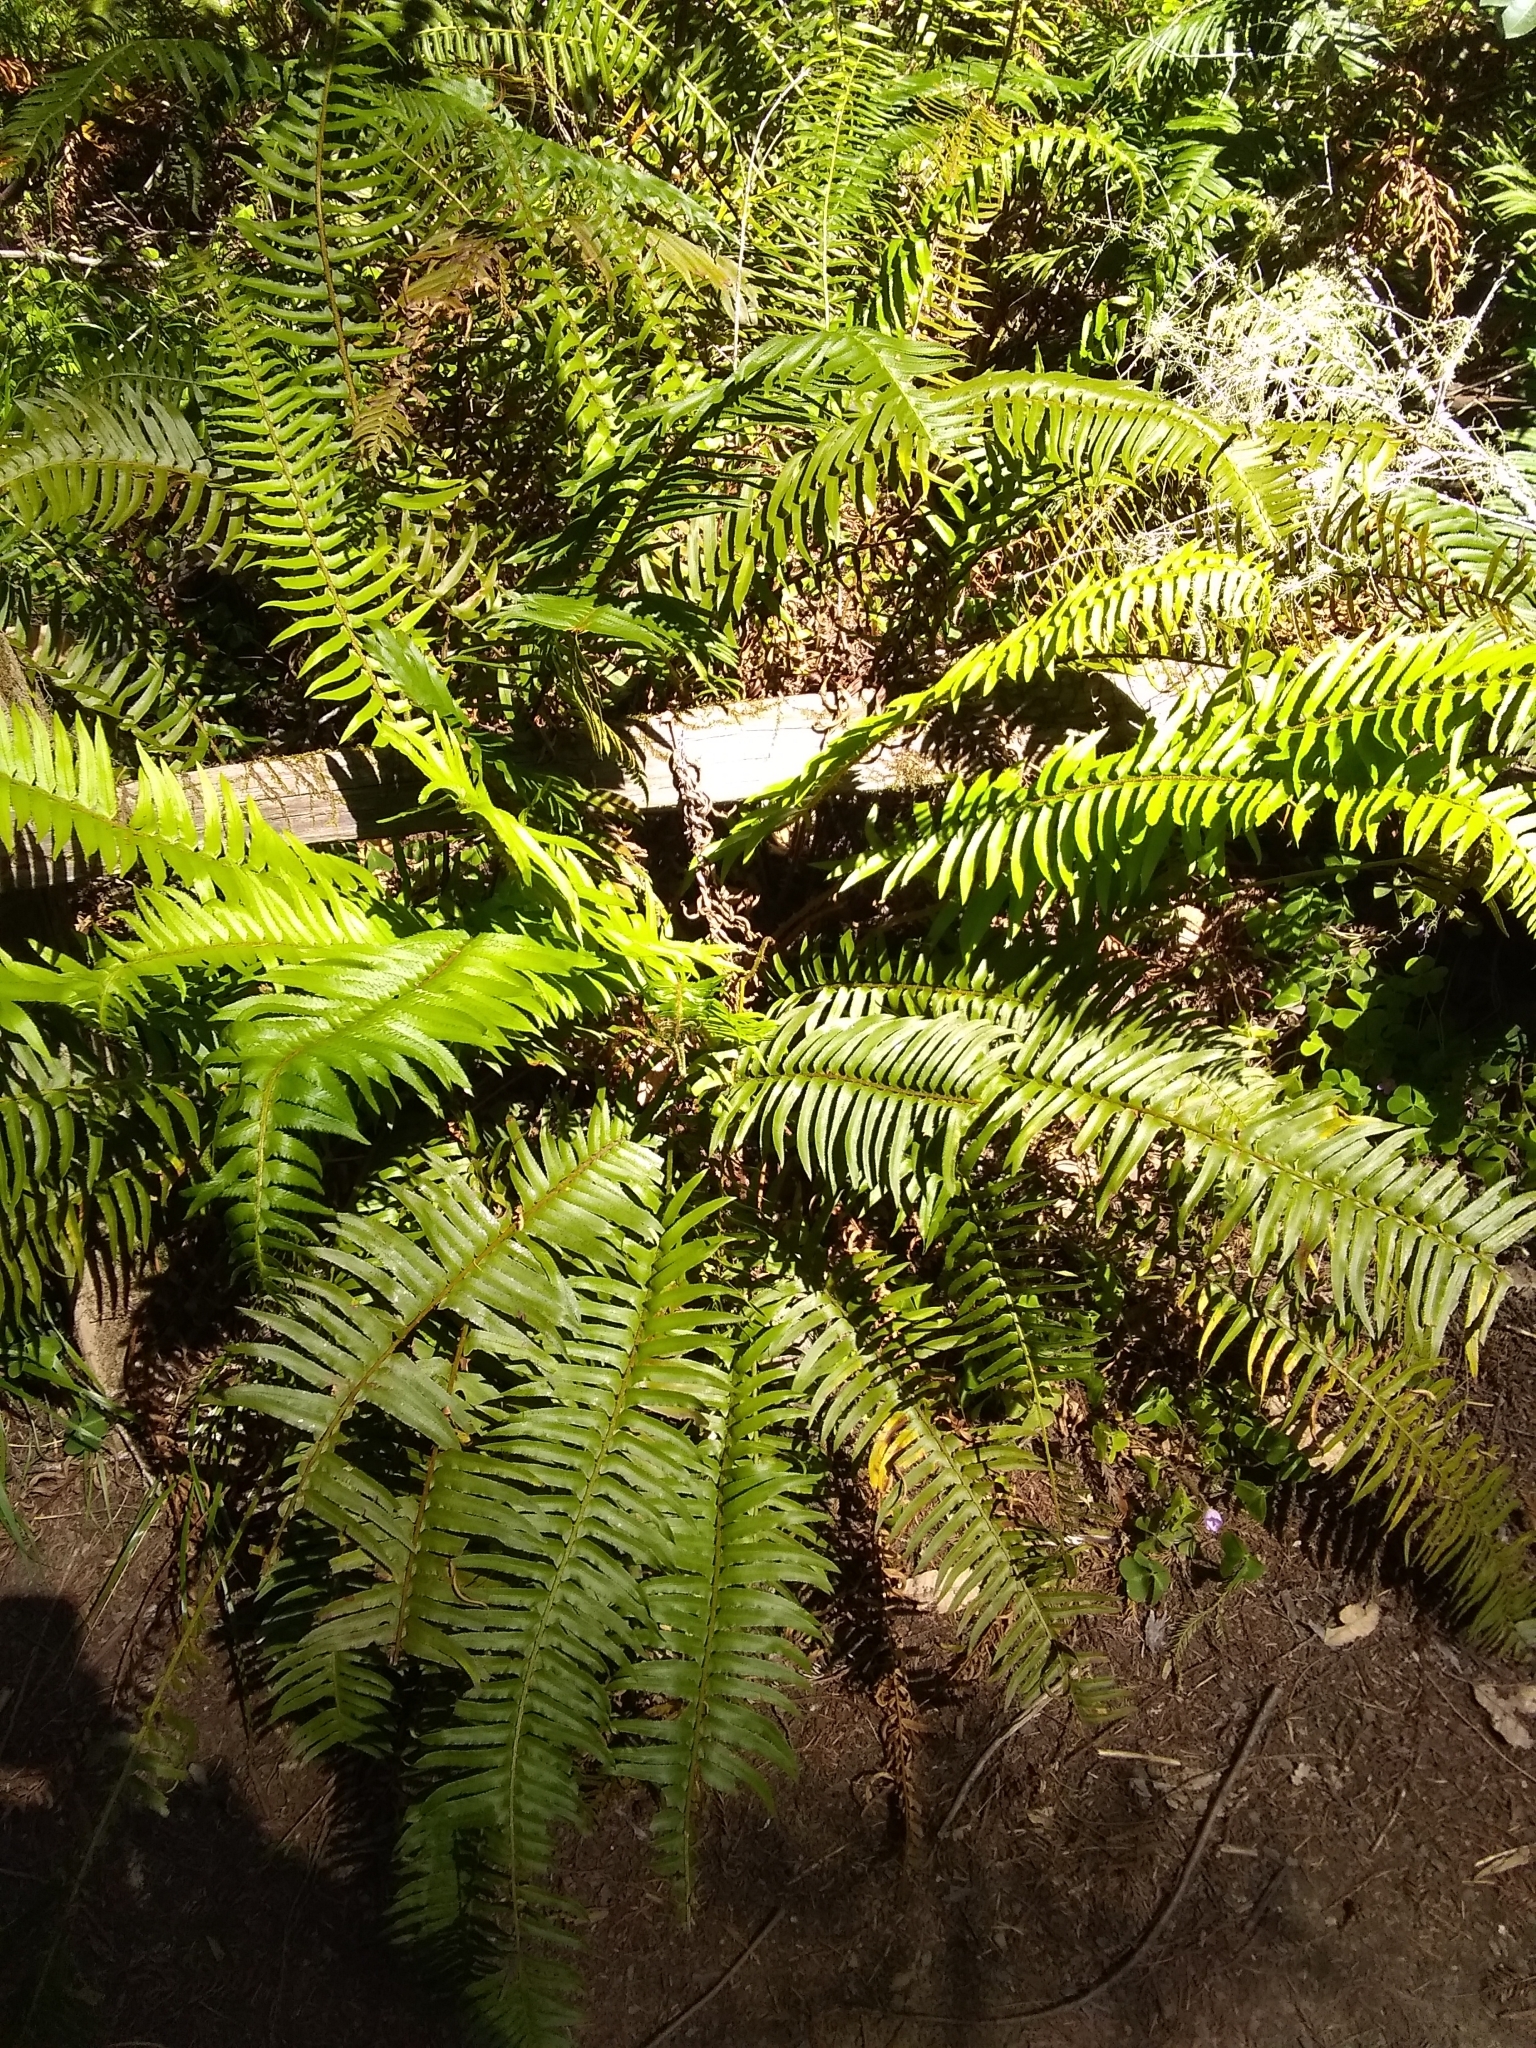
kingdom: Plantae
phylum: Tracheophyta
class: Polypodiopsida
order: Polypodiales
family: Dryopteridaceae
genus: Polystichum
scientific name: Polystichum munitum
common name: Western sword-fern
